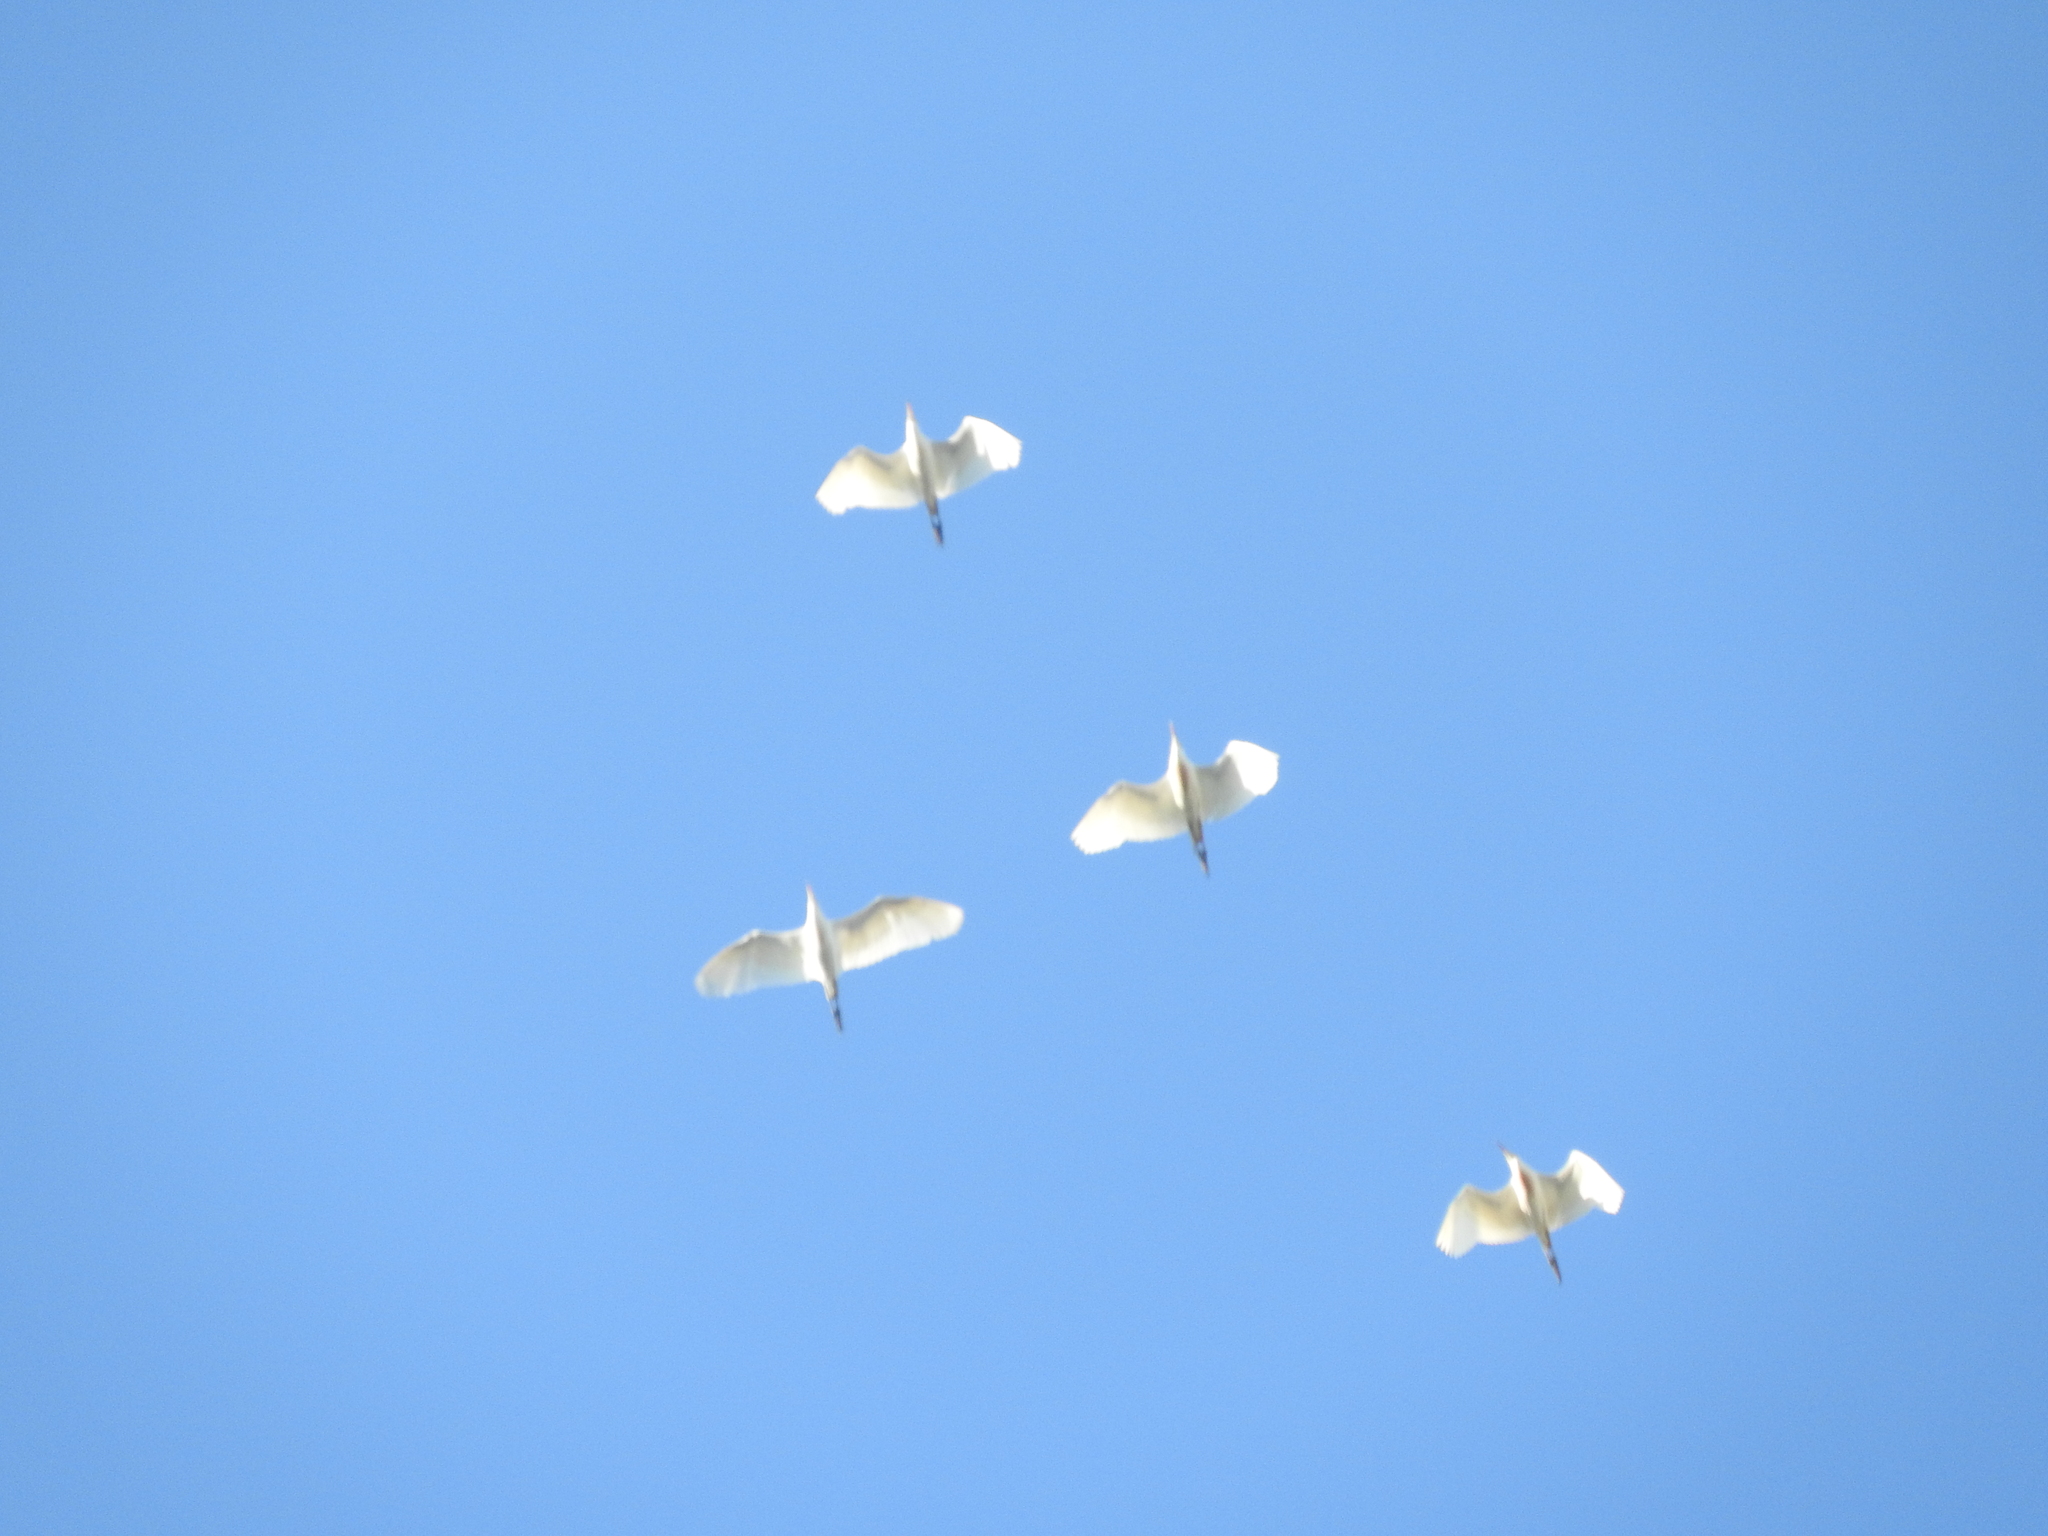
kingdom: Animalia
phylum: Chordata
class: Aves
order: Pelecaniformes
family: Ardeidae
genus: Bubulcus
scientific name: Bubulcus ibis
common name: Cattle egret
